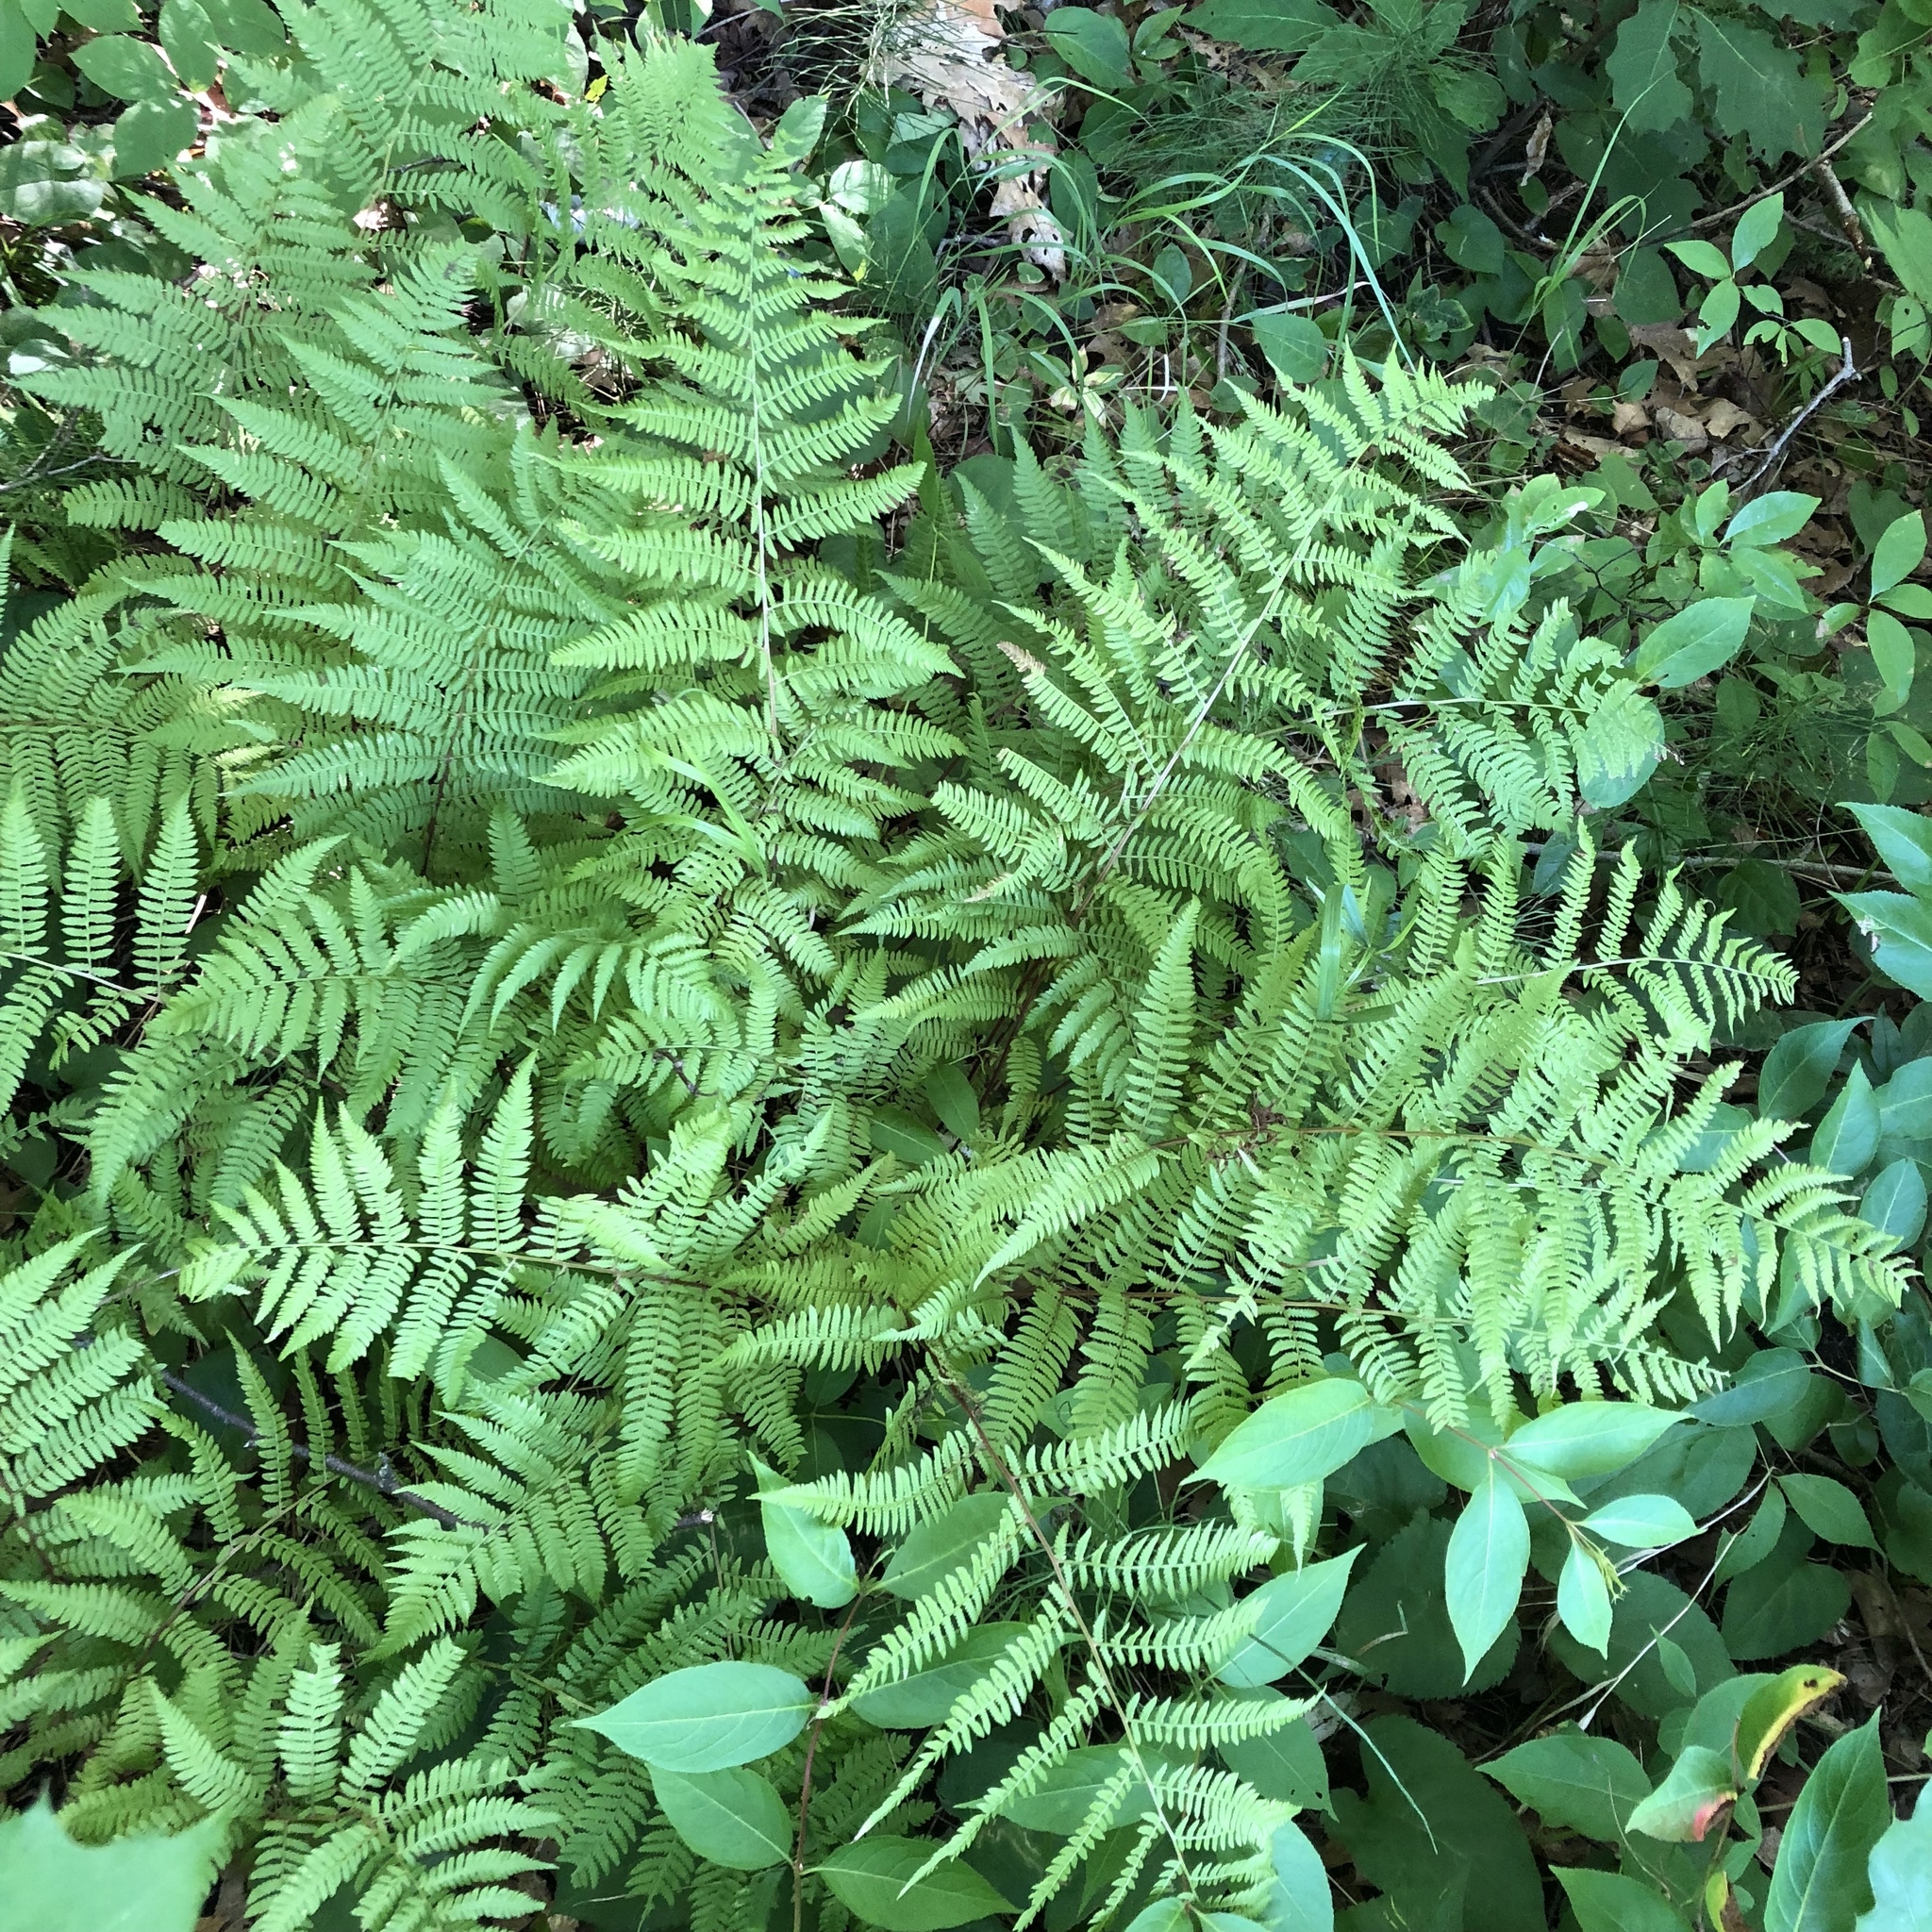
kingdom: Plantae
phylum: Tracheophyta
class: Polypodiopsida
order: Polypodiales
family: Athyriaceae
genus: Athyrium
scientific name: Athyrium angustum
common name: Northern lady fern
